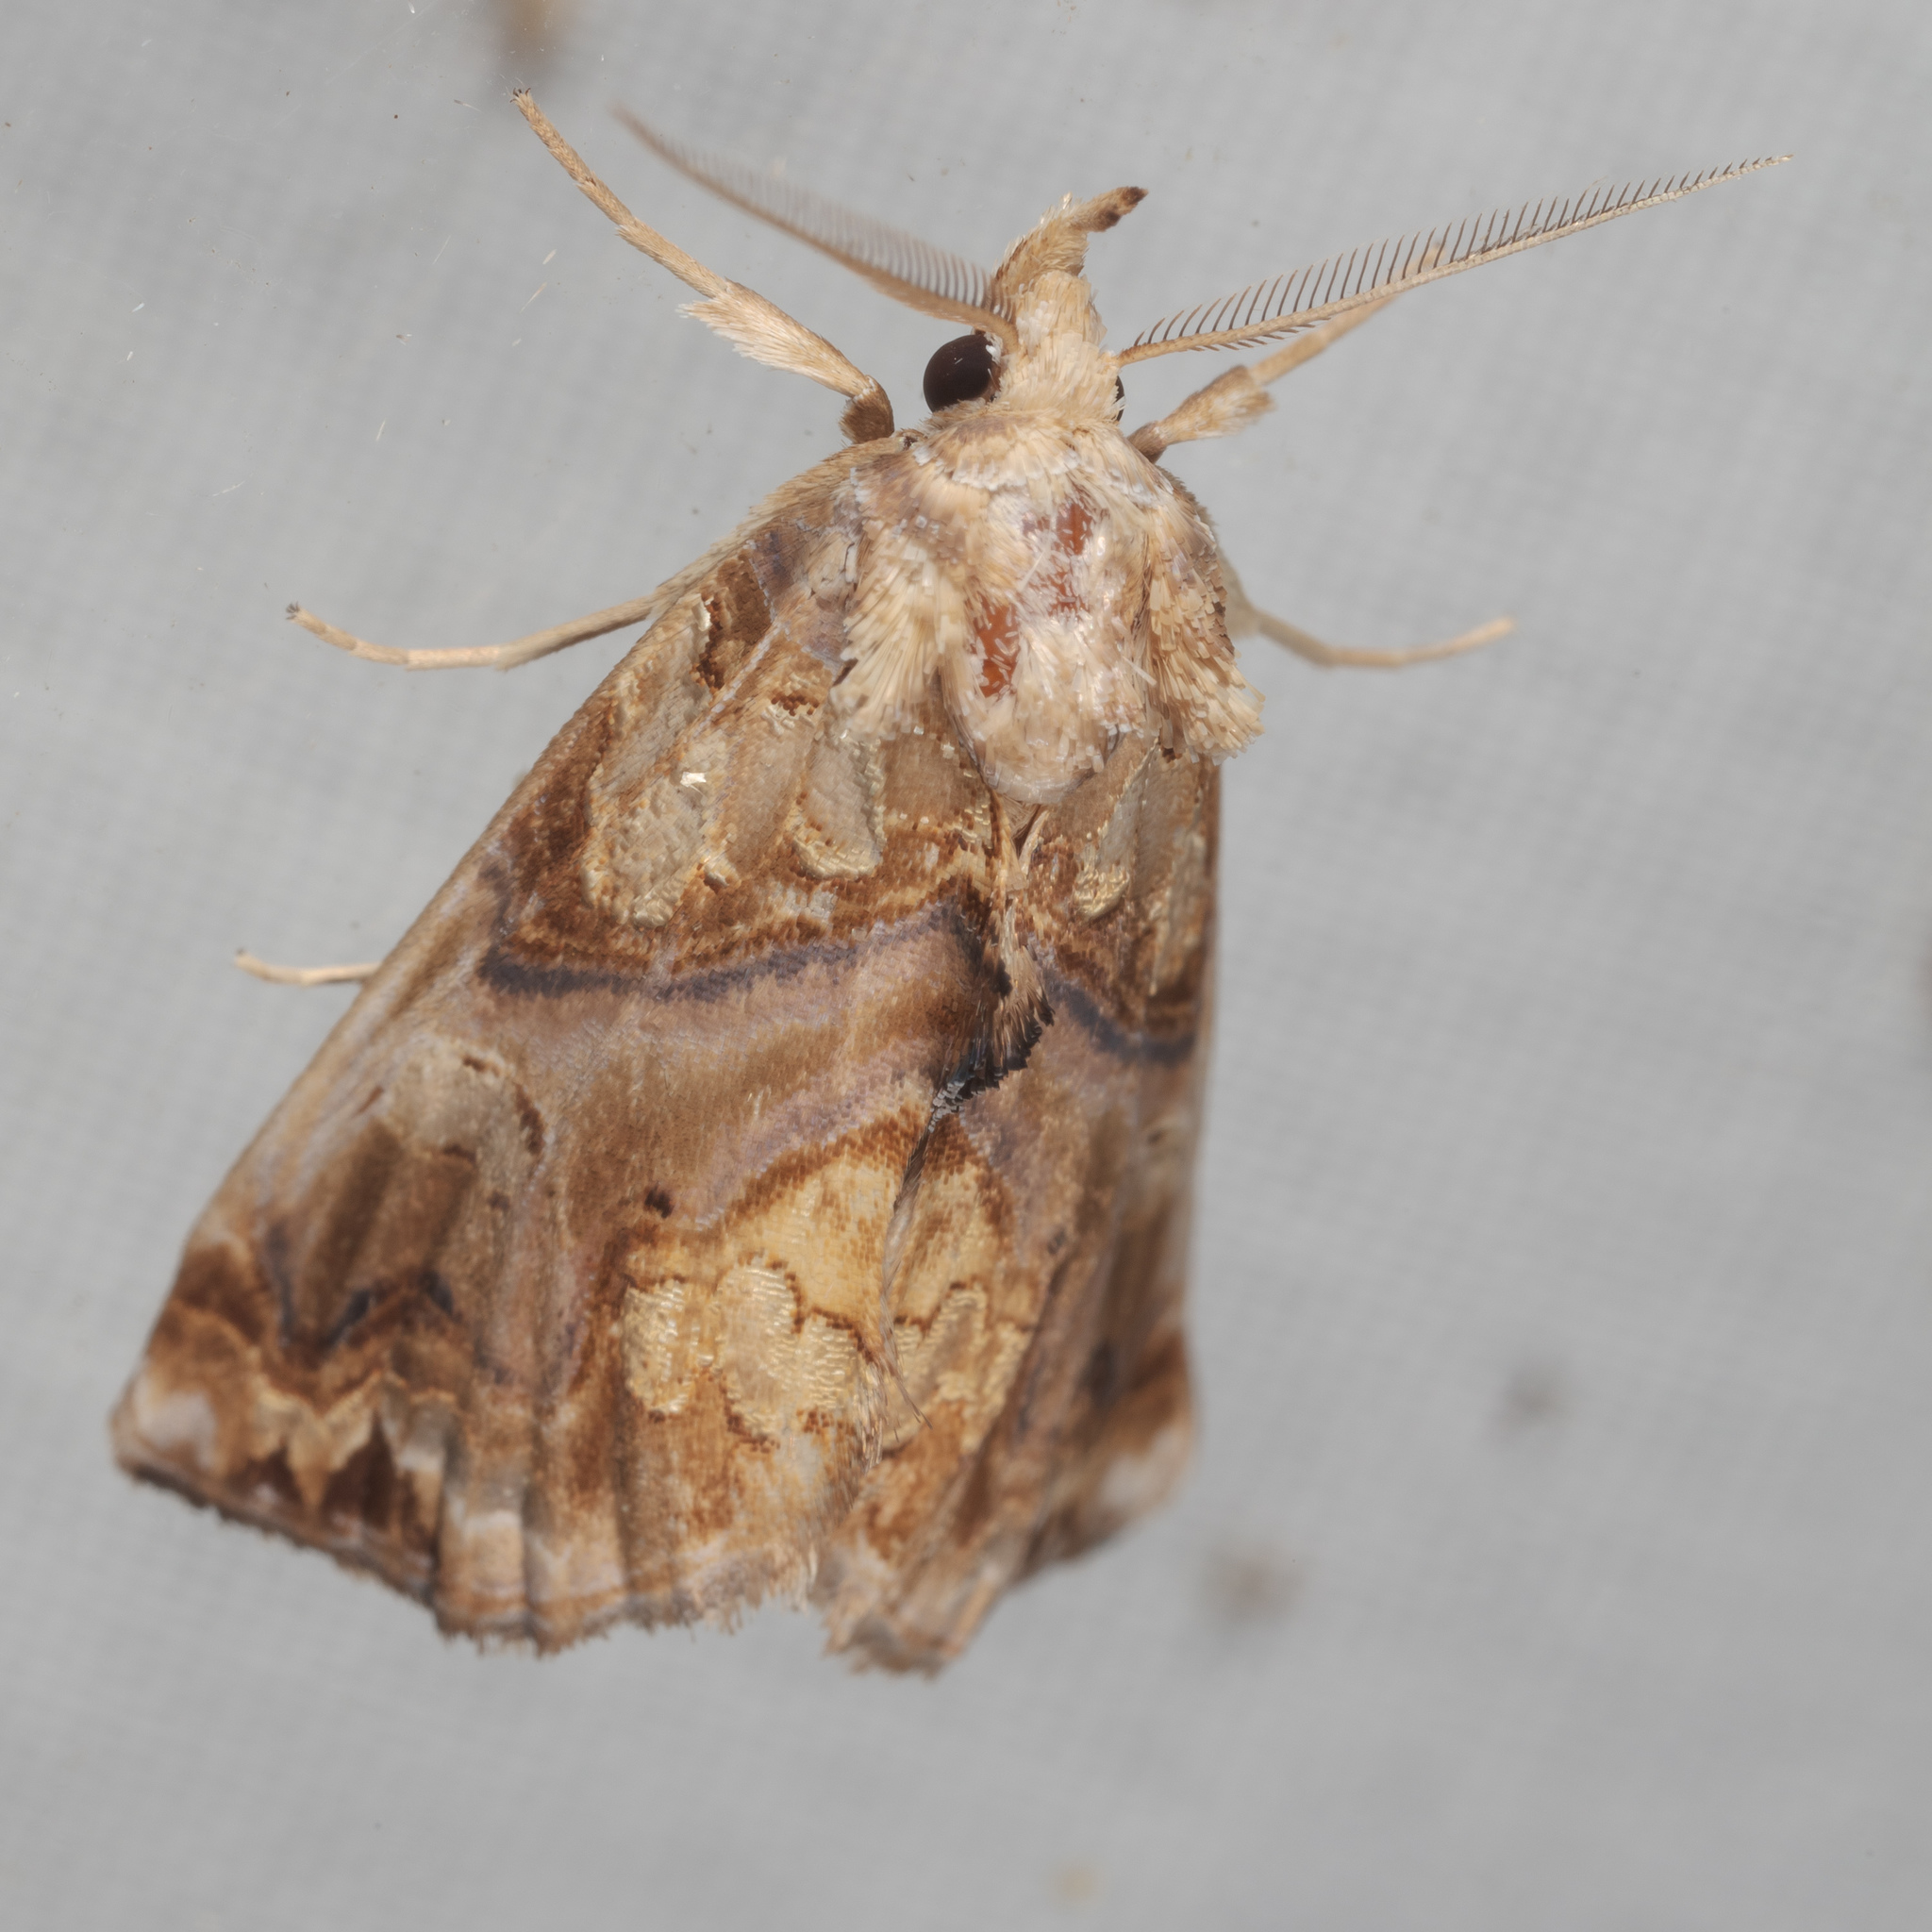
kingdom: Animalia
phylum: Arthropoda
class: Insecta
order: Lepidoptera
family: Erebidae
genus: Plusiodonta
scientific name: Plusiodonta compressipalpis
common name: Moonseed moth
